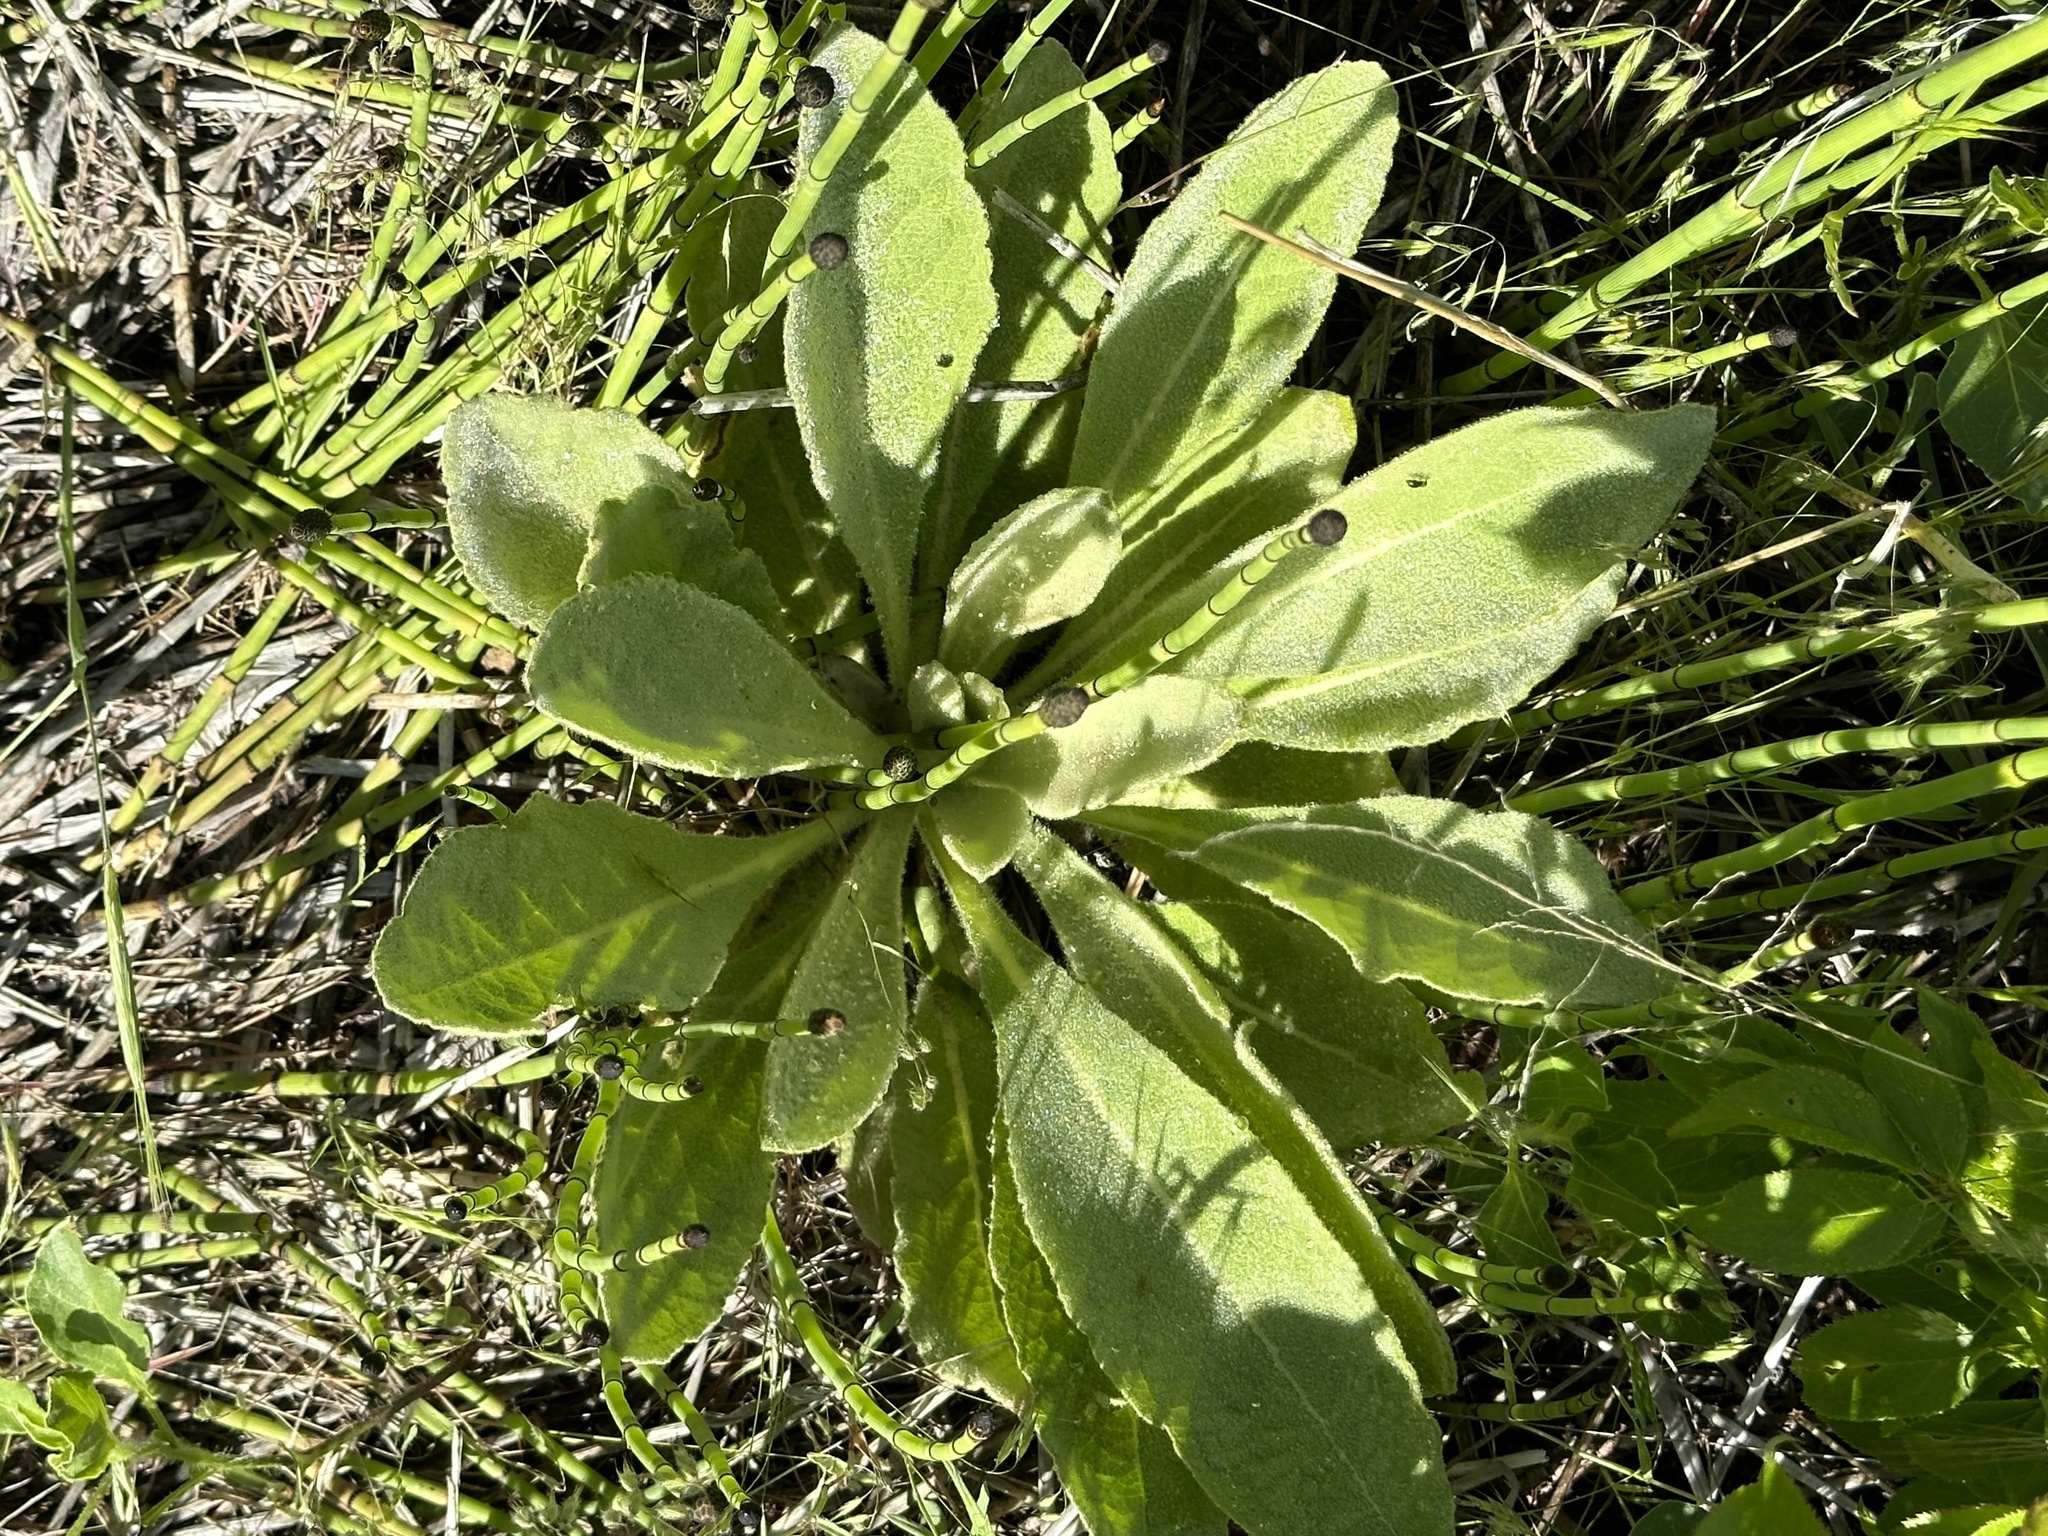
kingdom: Plantae
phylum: Tracheophyta
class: Magnoliopsida
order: Lamiales
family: Scrophulariaceae
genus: Verbascum
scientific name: Verbascum thapsus
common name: Common mullein
